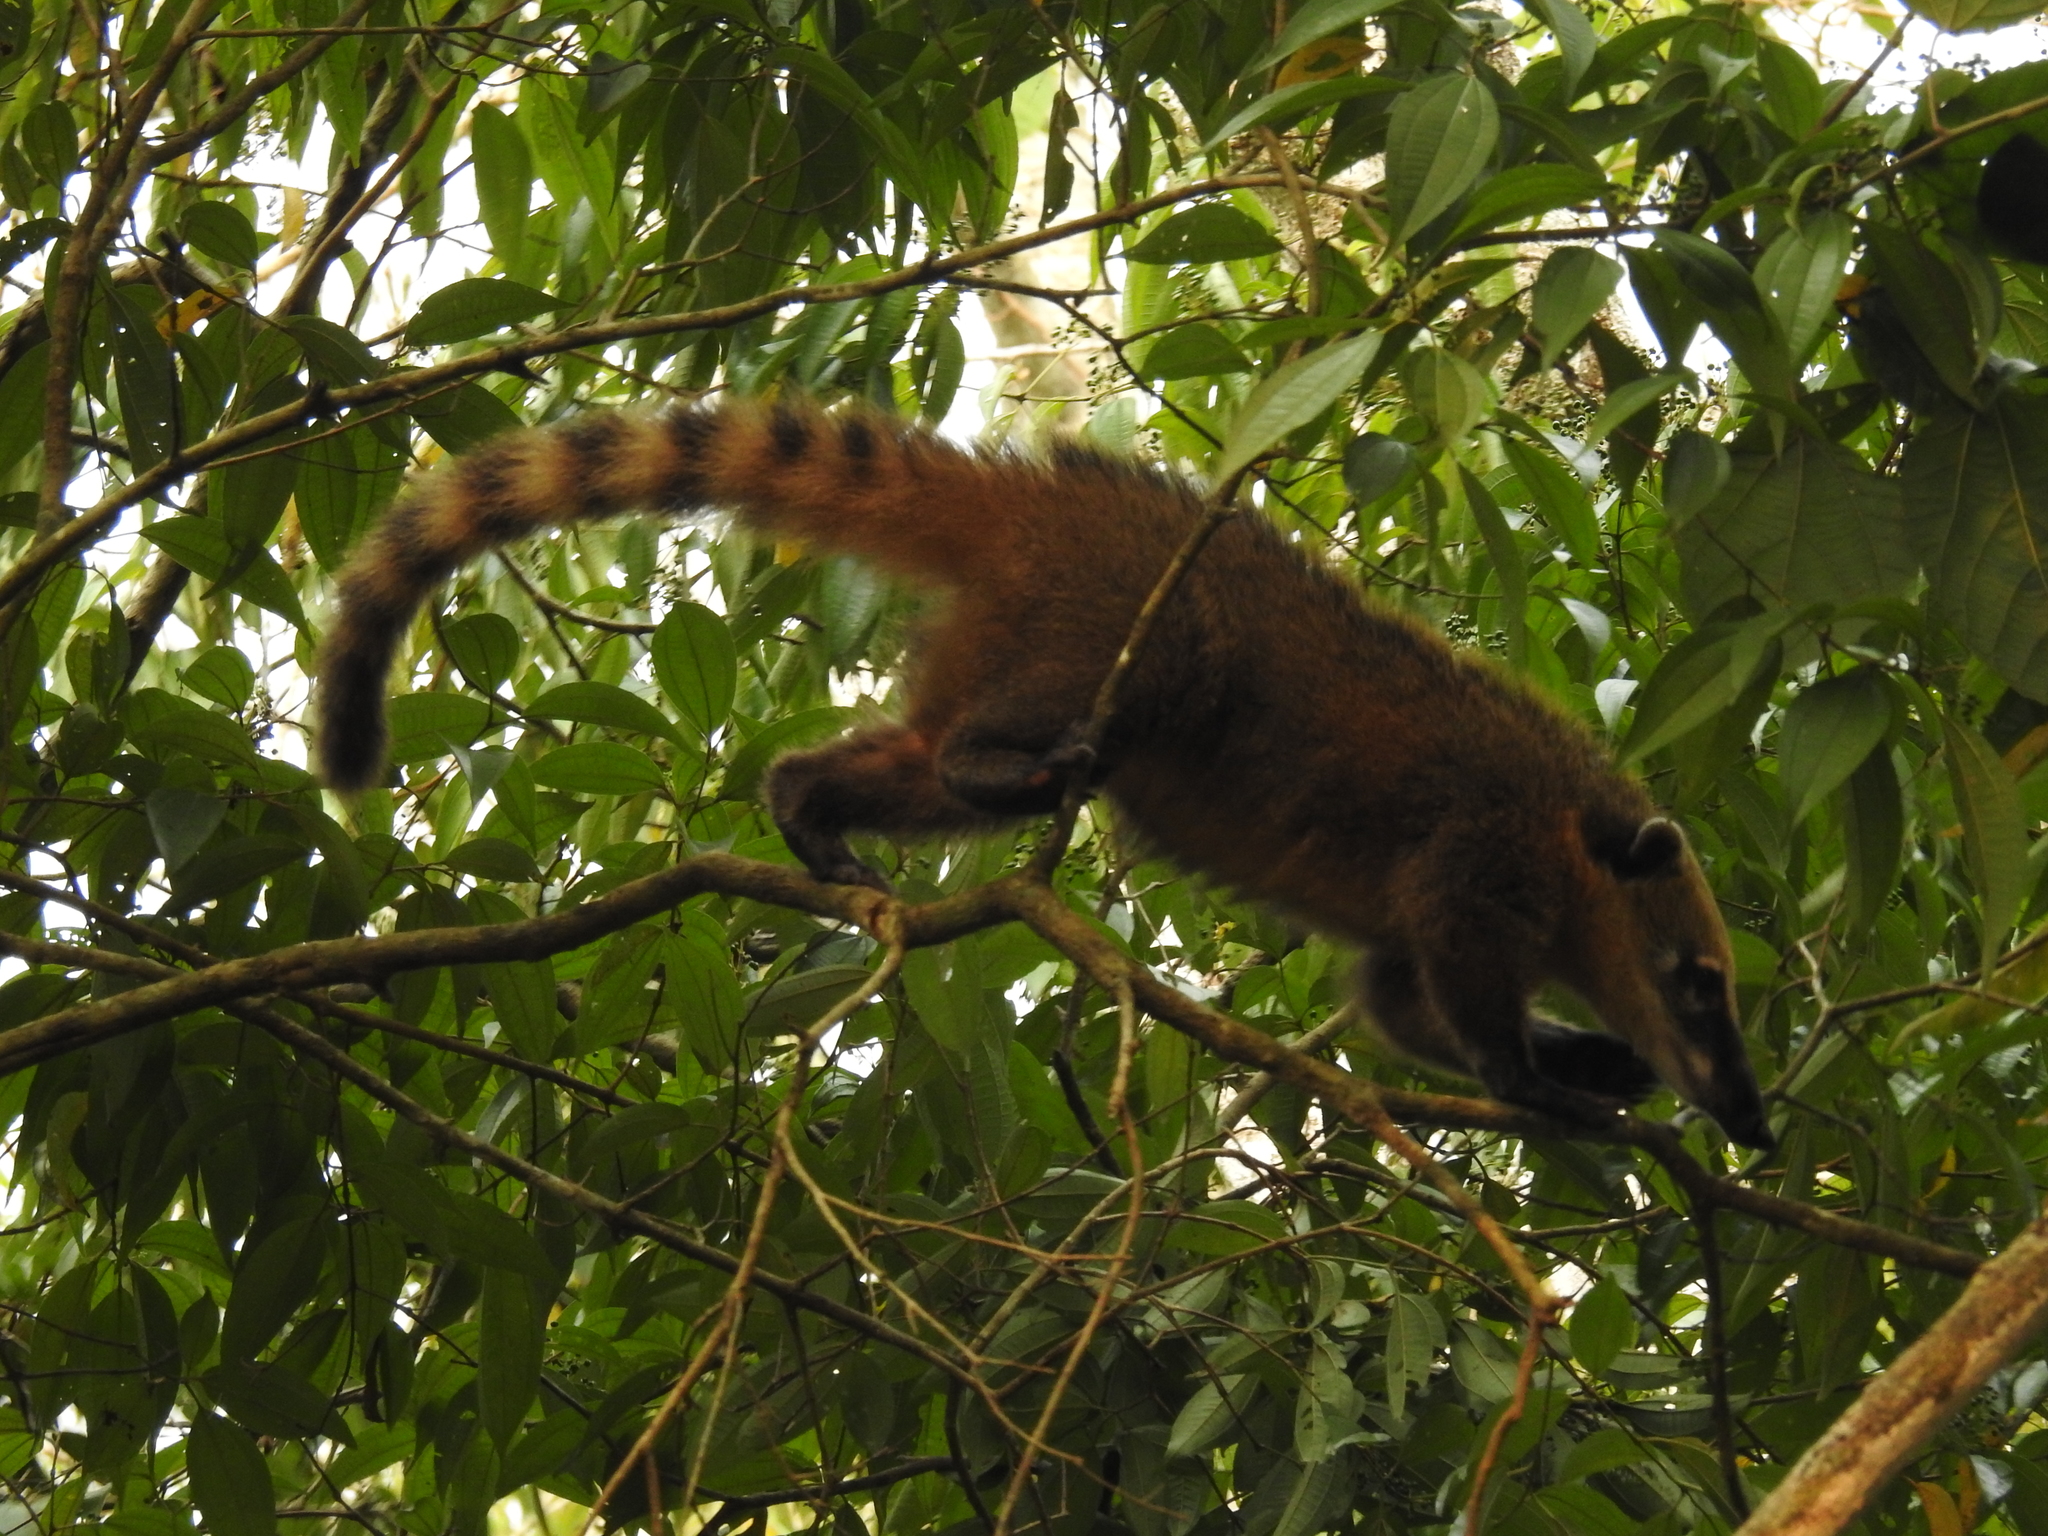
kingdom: Animalia
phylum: Chordata
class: Mammalia
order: Carnivora
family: Procyonidae
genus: Nasua
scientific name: Nasua nasua
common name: South american coati
